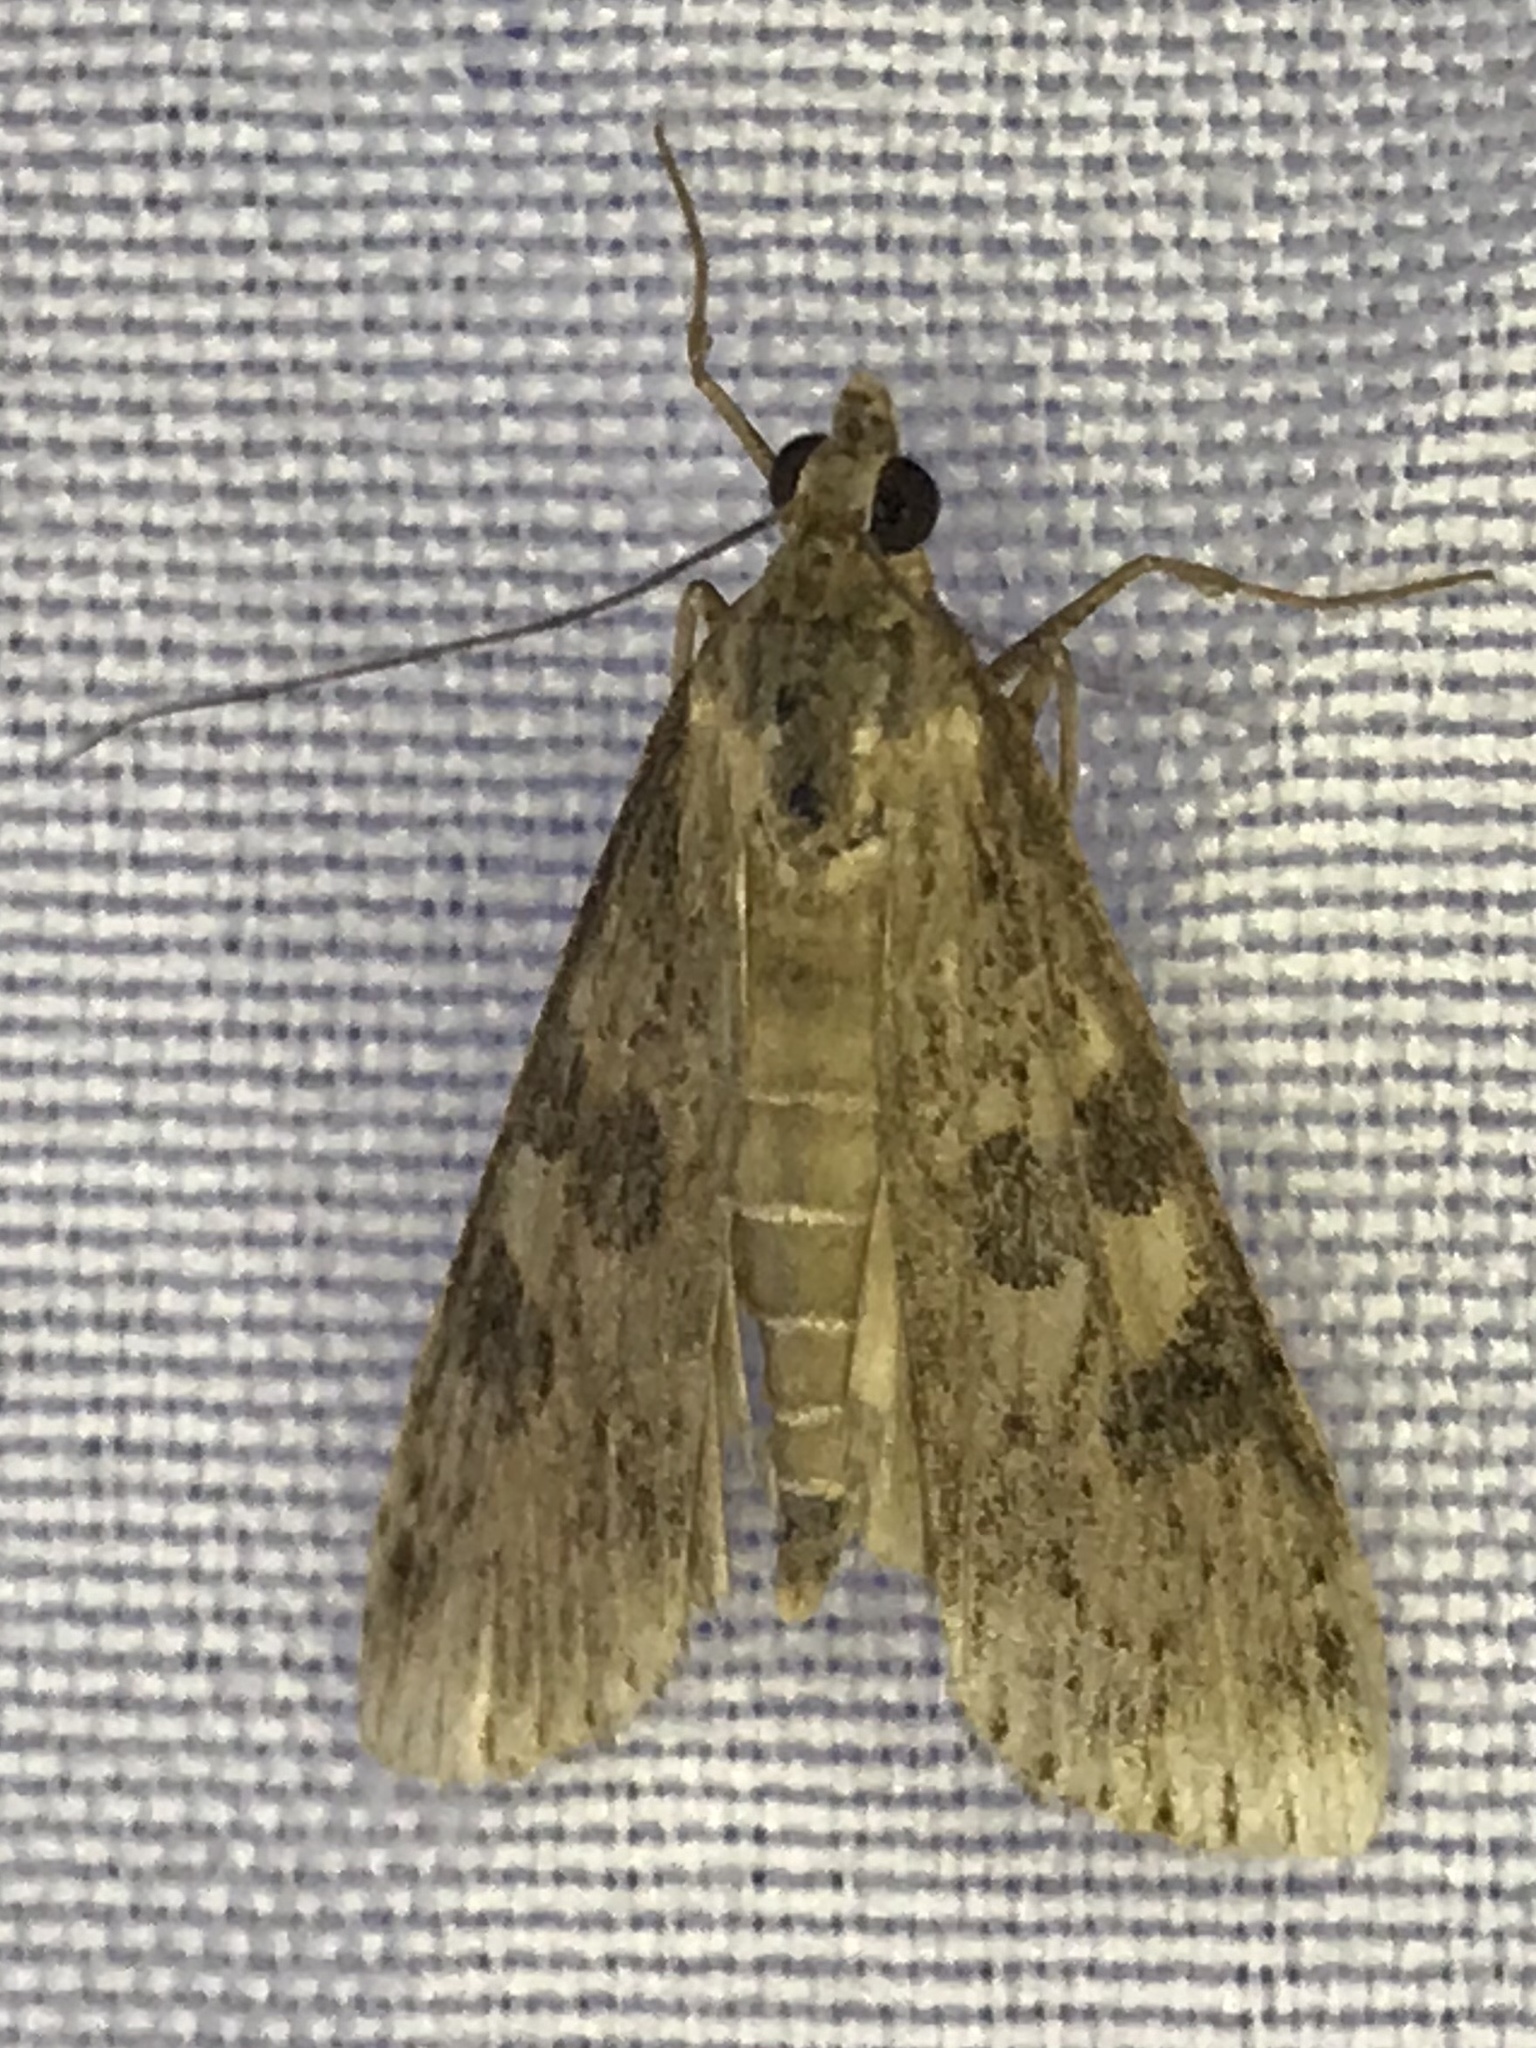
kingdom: Animalia
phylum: Arthropoda
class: Insecta
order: Lepidoptera
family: Crambidae
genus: Nomophila
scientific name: Nomophila nearctica
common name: American rush veneer
